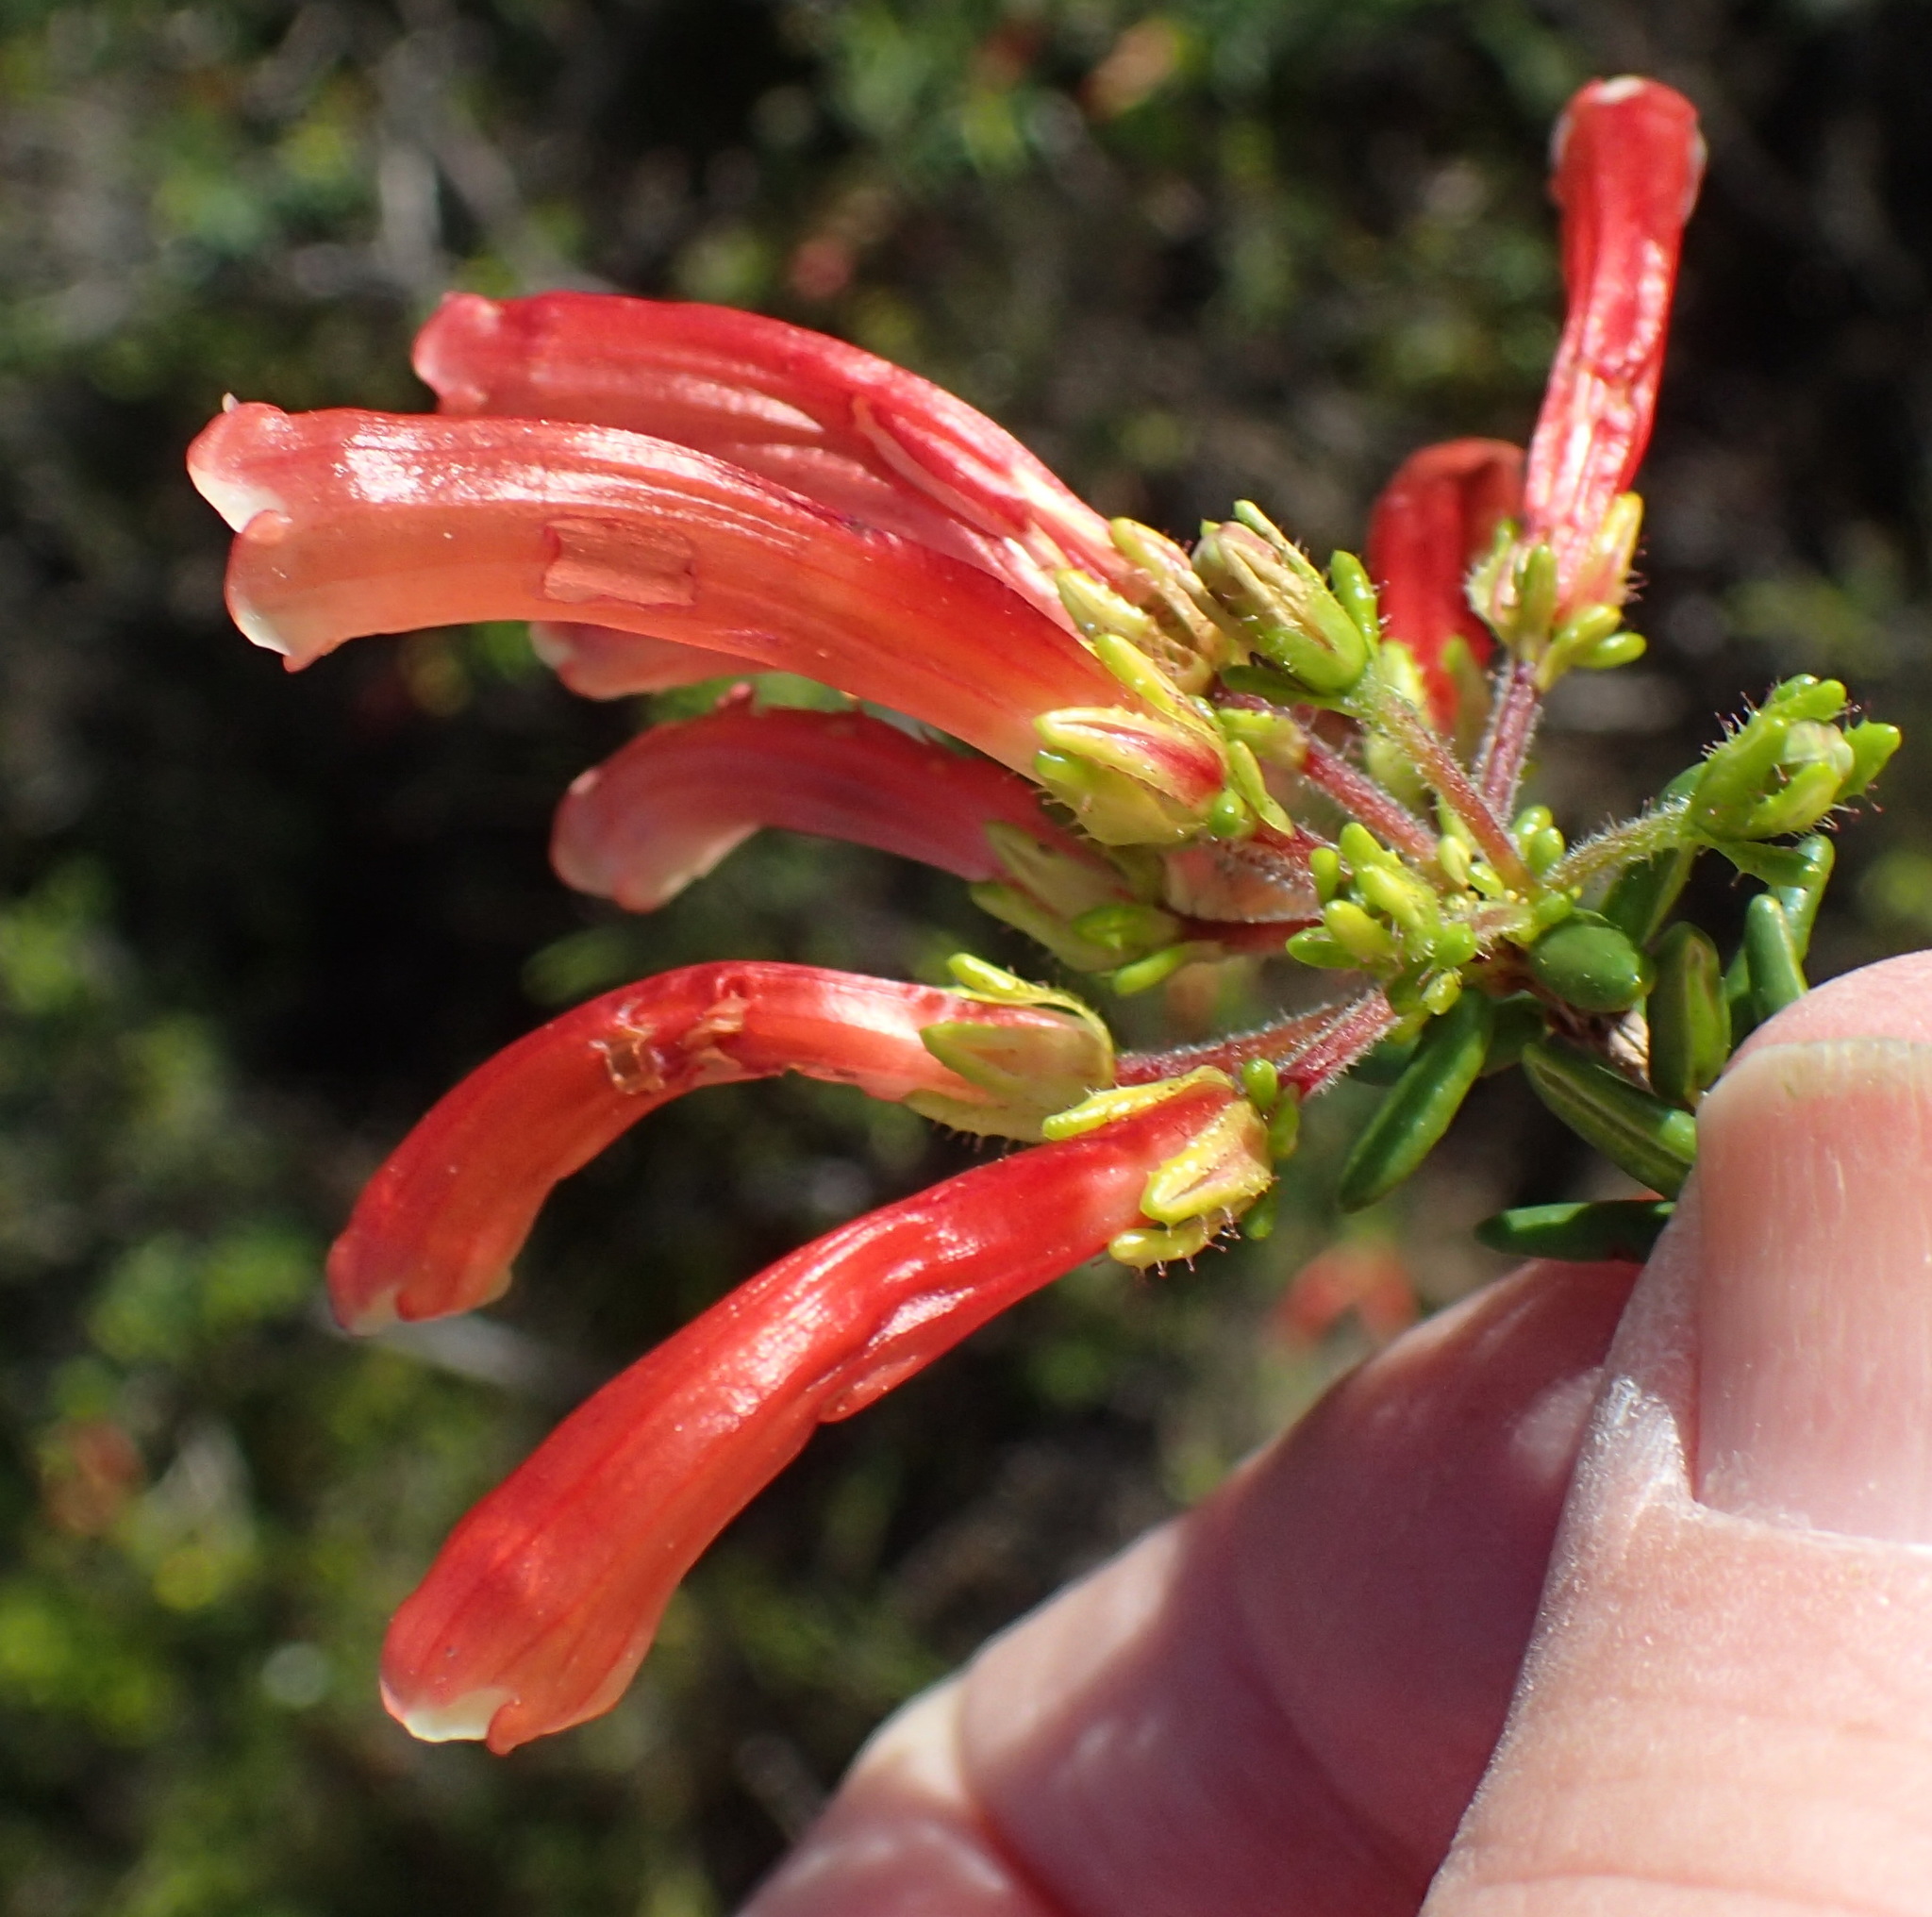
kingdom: Plantae
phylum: Tracheophyta
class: Magnoliopsida
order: Ericales
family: Ericaceae
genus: Erica
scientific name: Erica glandulosa
